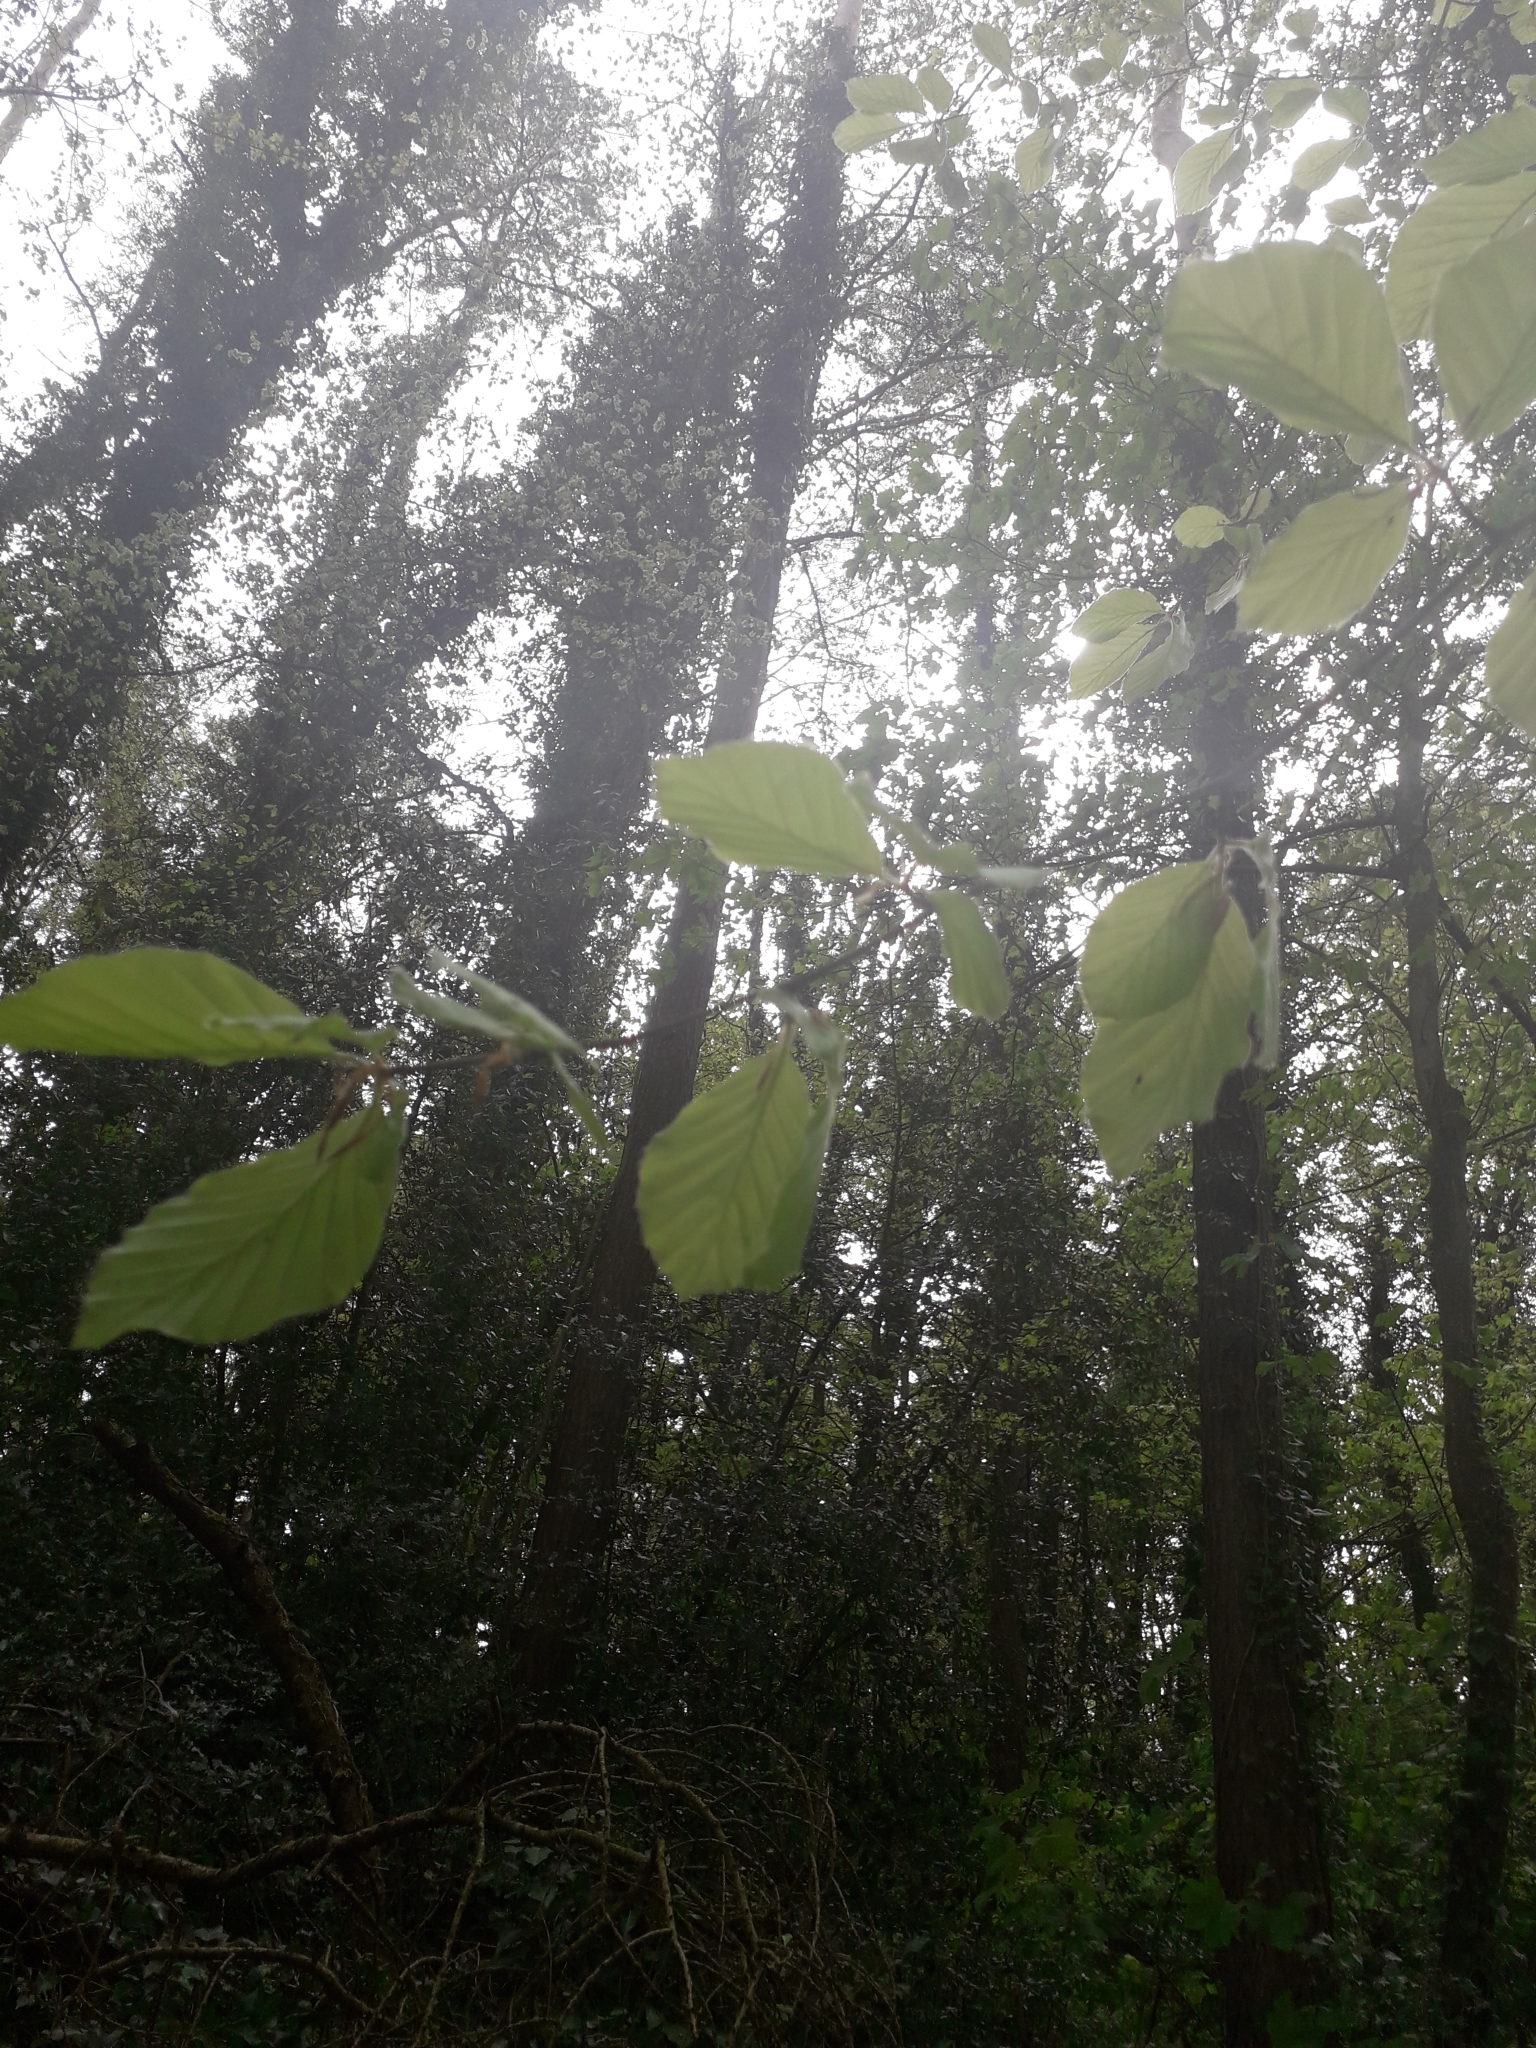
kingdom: Plantae
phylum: Tracheophyta
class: Magnoliopsida
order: Fagales
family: Fagaceae
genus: Fagus
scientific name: Fagus sylvatica
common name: Beech
